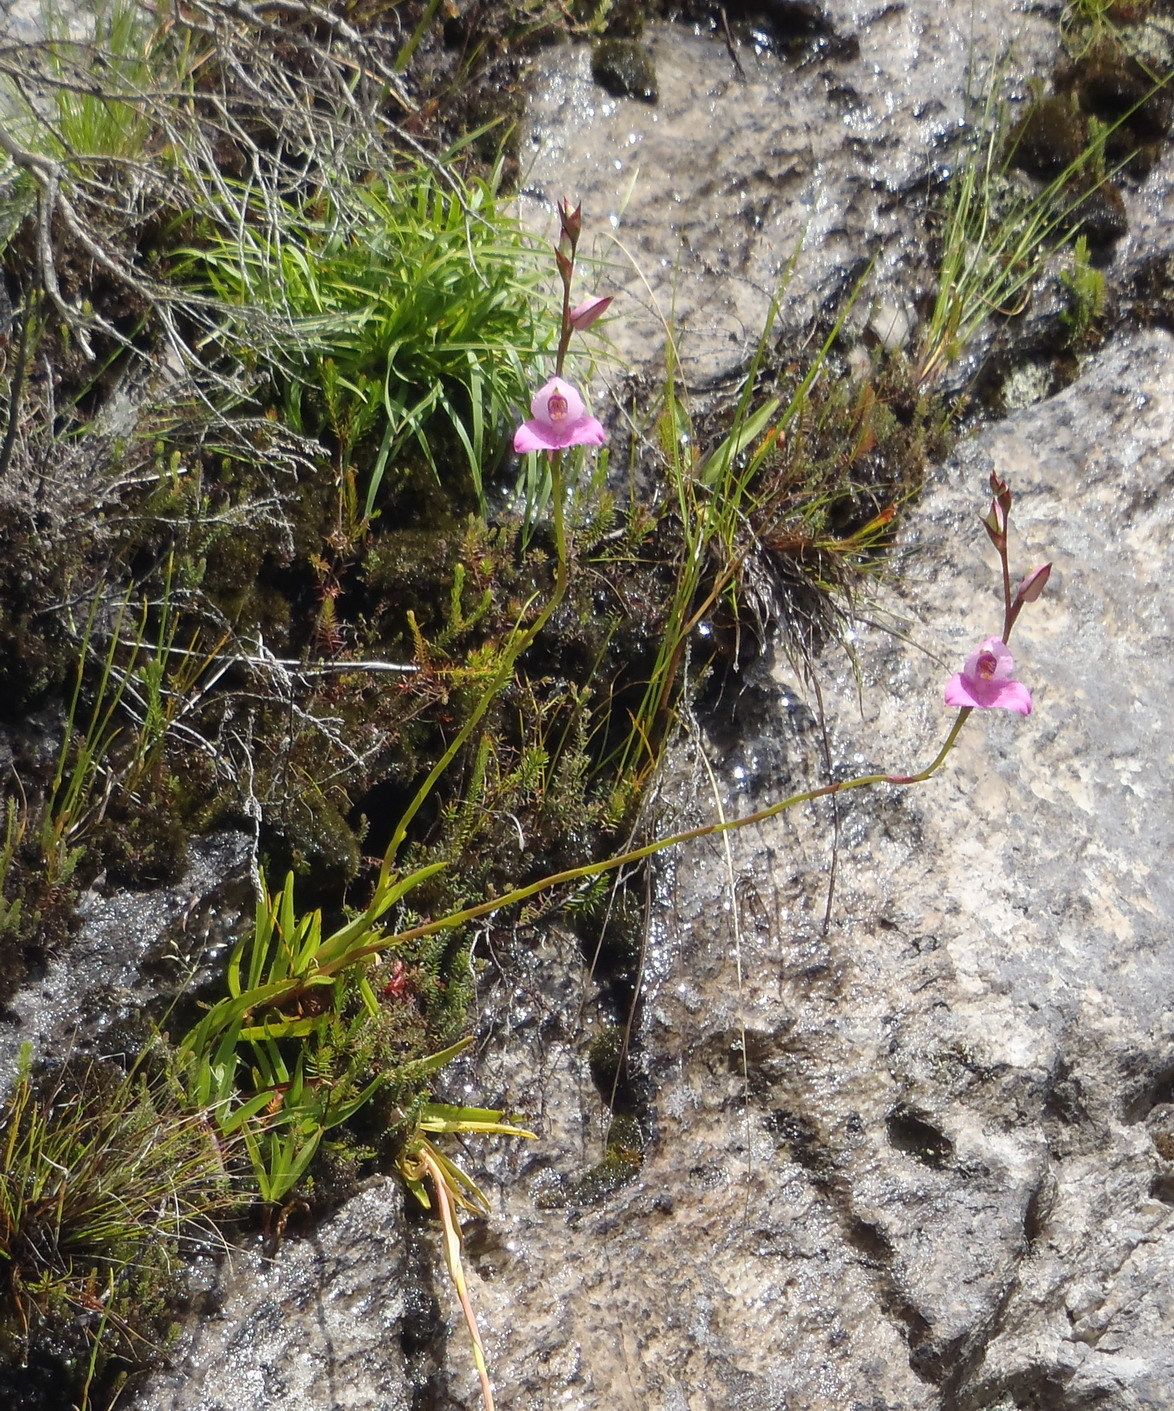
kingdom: Plantae
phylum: Tracheophyta
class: Liliopsida
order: Asparagales
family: Orchidaceae
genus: Disa
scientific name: Disa racemosa
